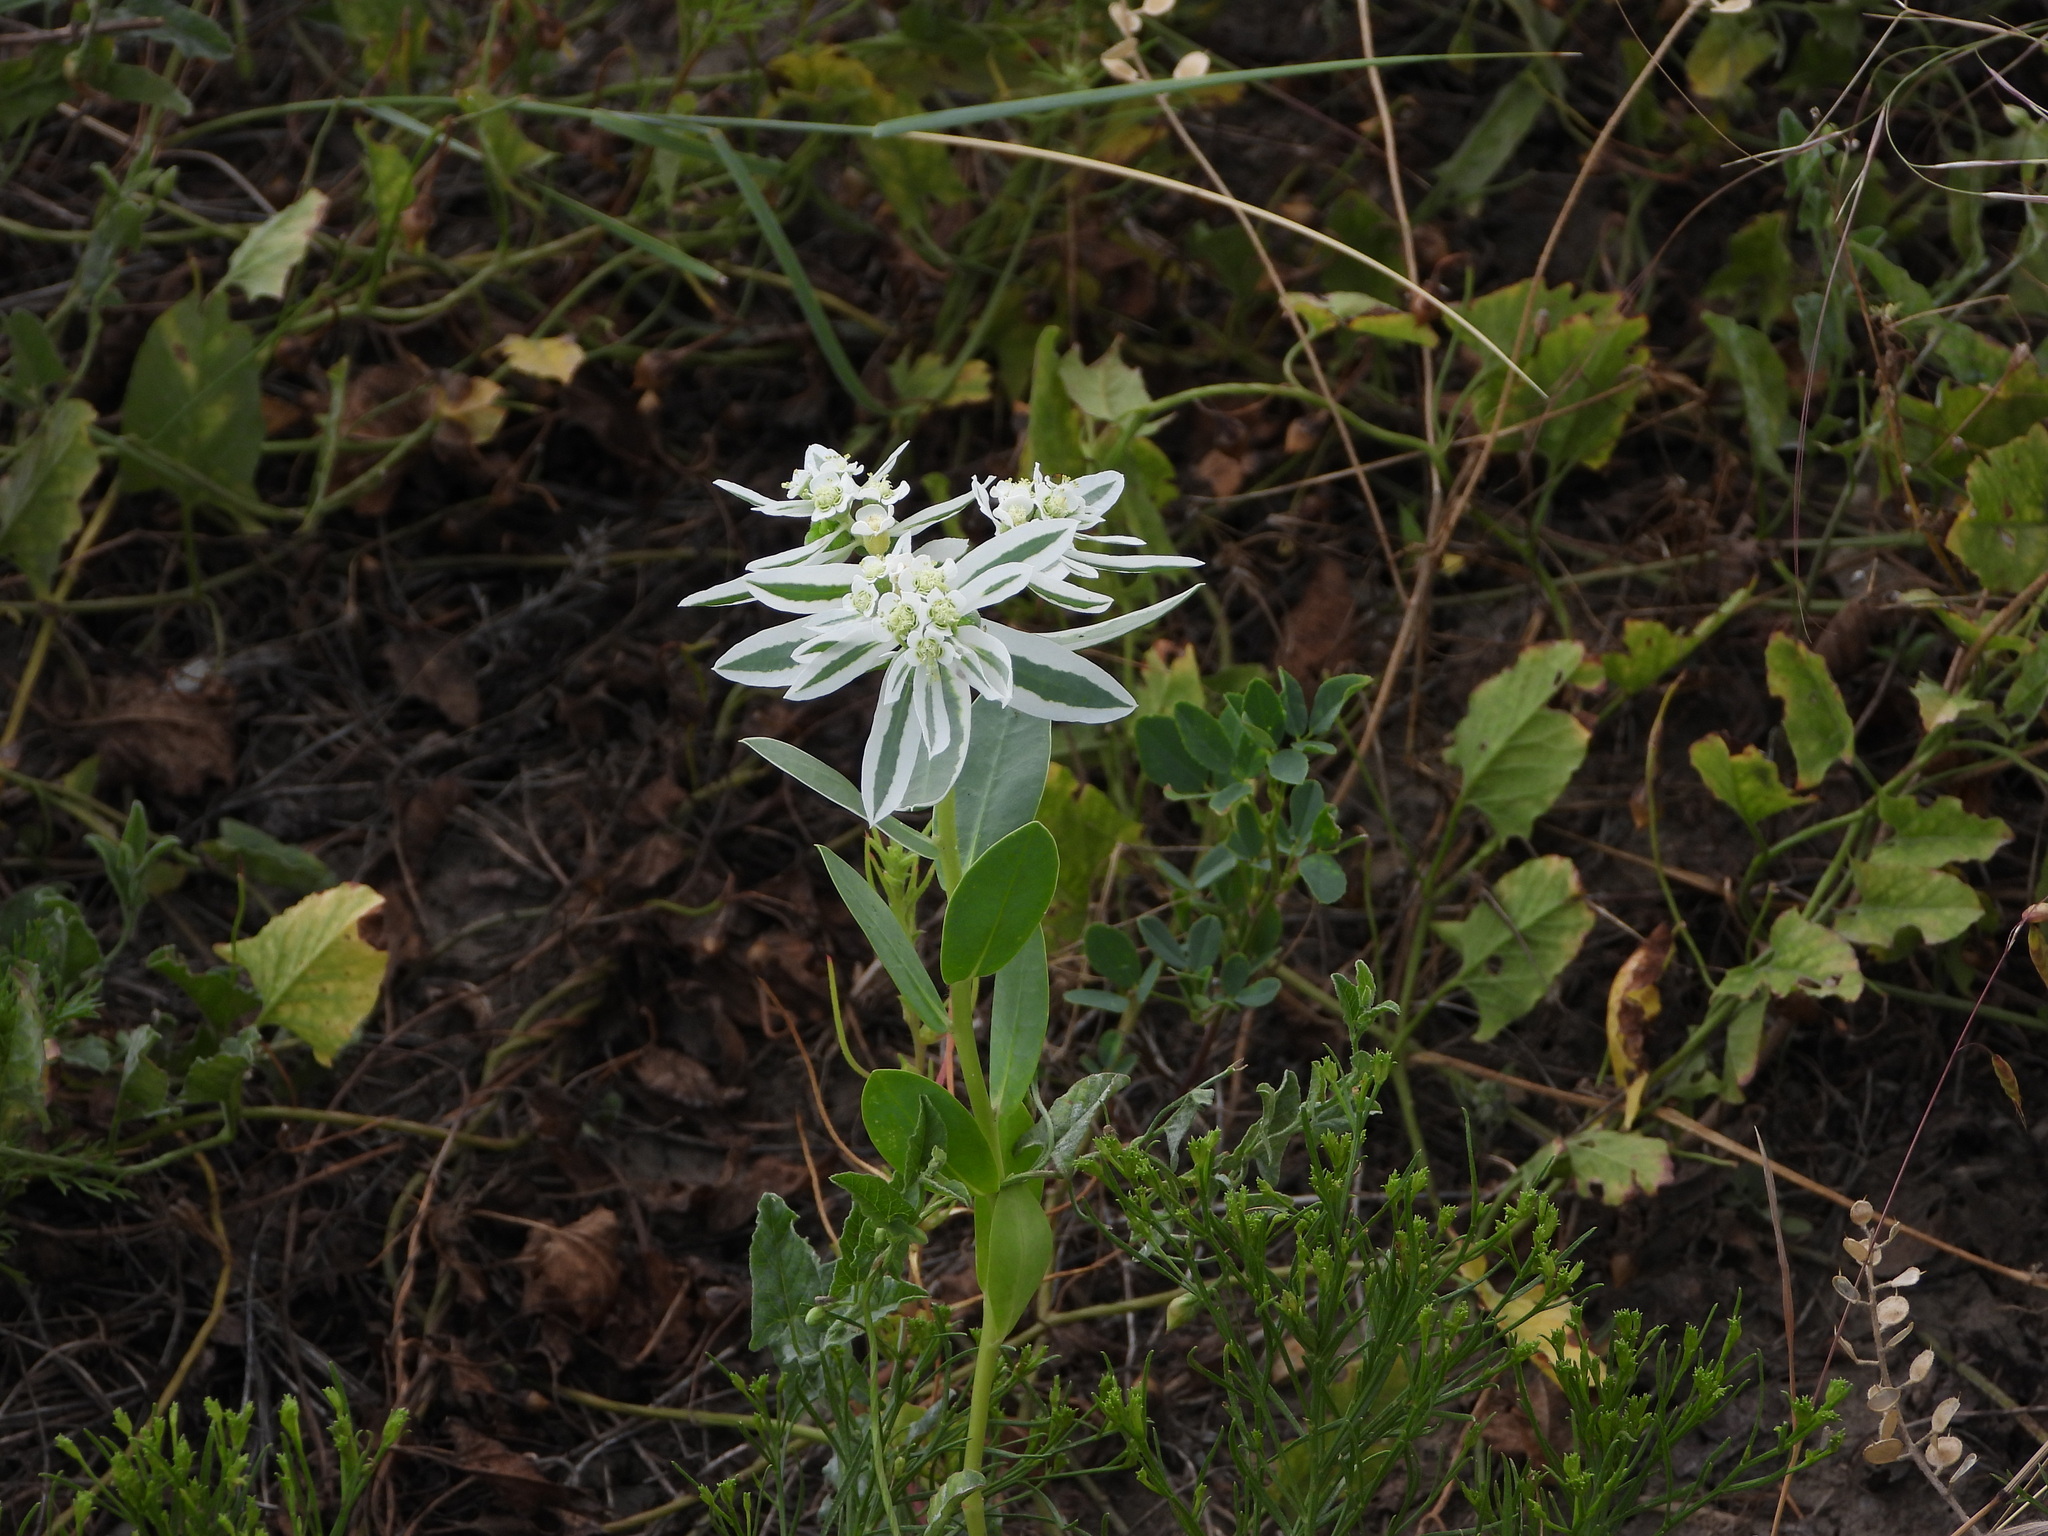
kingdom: Plantae
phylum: Tracheophyta
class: Magnoliopsida
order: Malpighiales
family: Euphorbiaceae
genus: Euphorbia
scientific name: Euphorbia marginata
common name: Ghostweed
